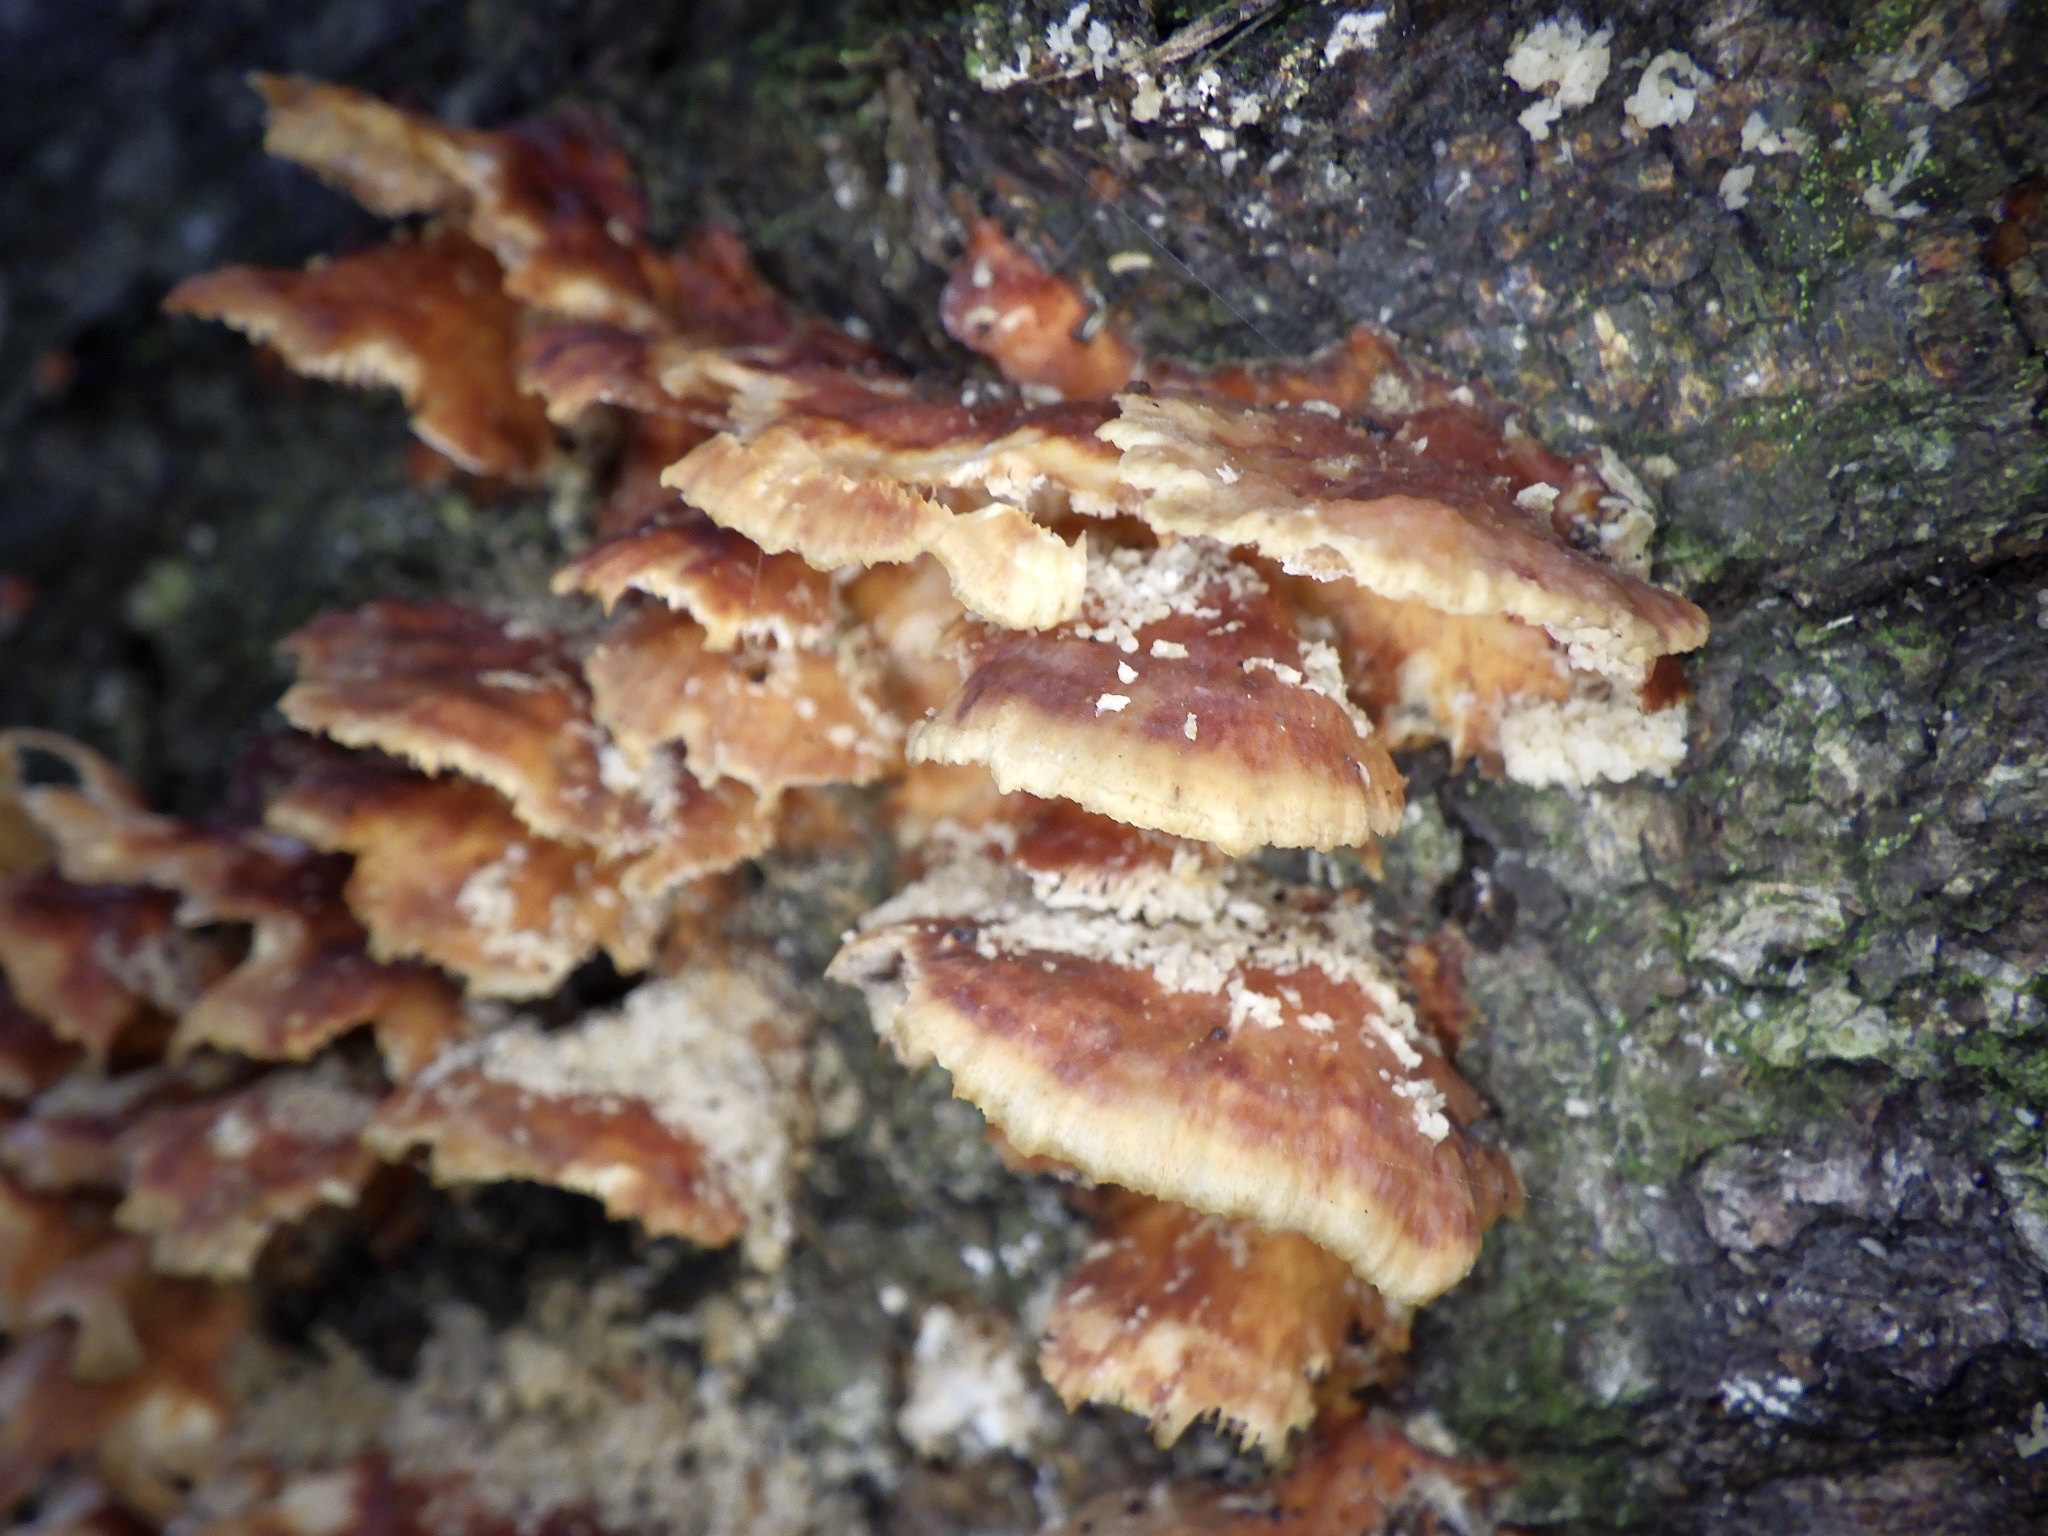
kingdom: Fungi
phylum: Basidiomycota
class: Agaricomycetes
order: Polyporales
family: Irpicaceae
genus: Irpex
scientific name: Irpex consors
